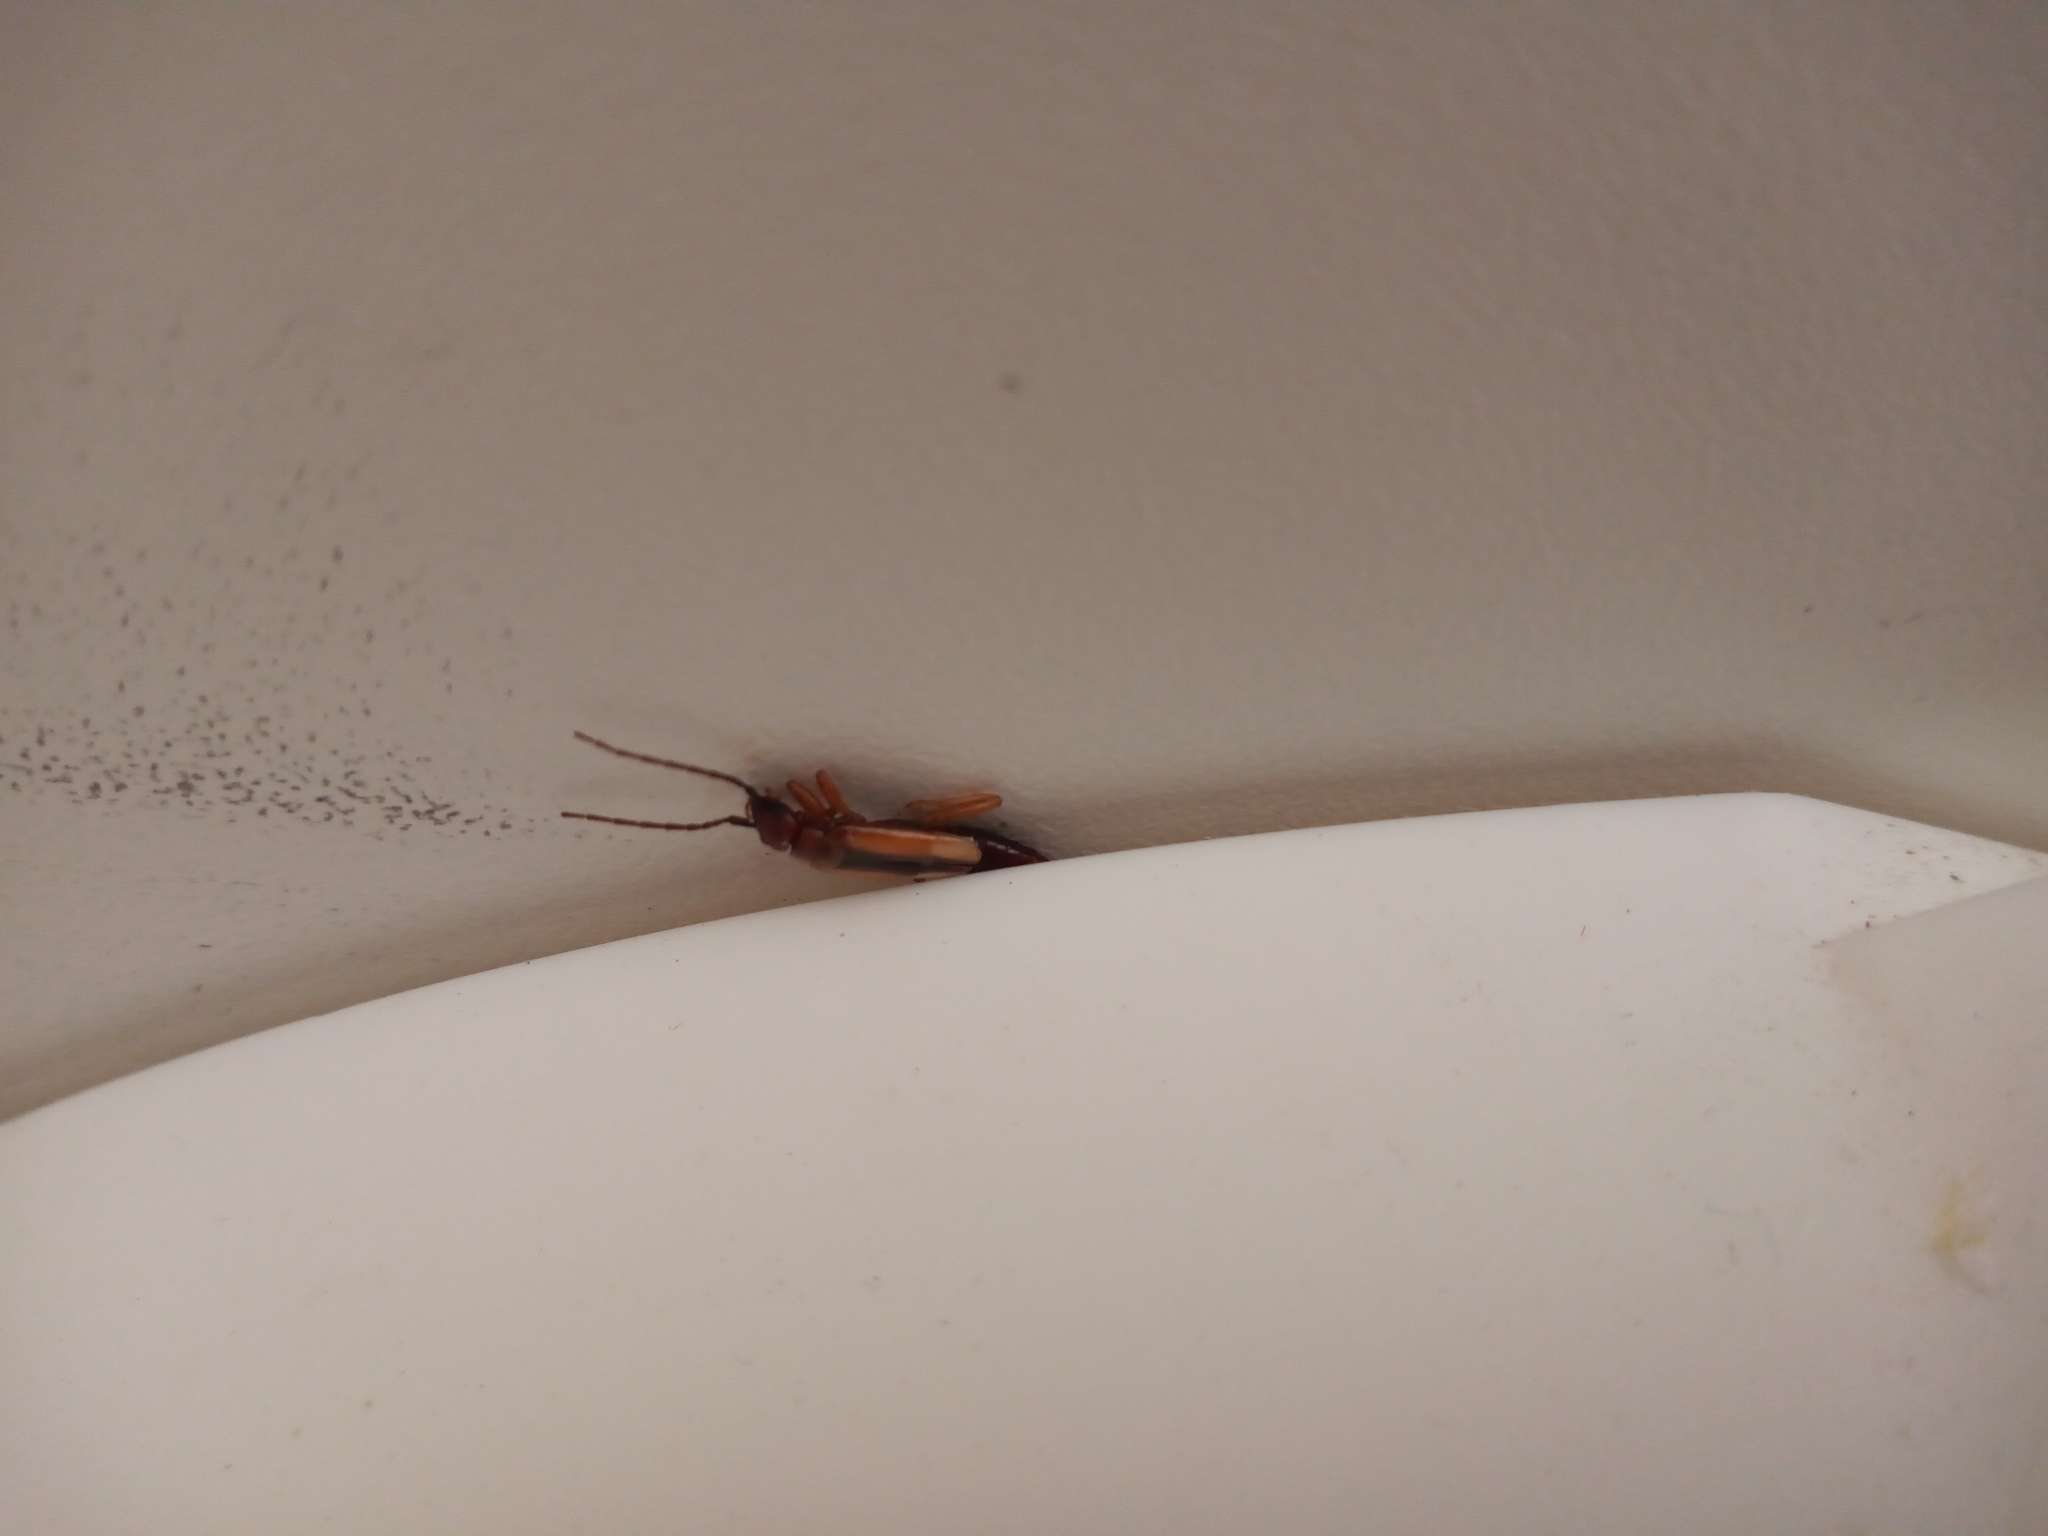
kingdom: Animalia
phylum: Arthropoda
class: Insecta
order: Dermaptera
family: Forficulidae
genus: Doru
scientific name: Doru
